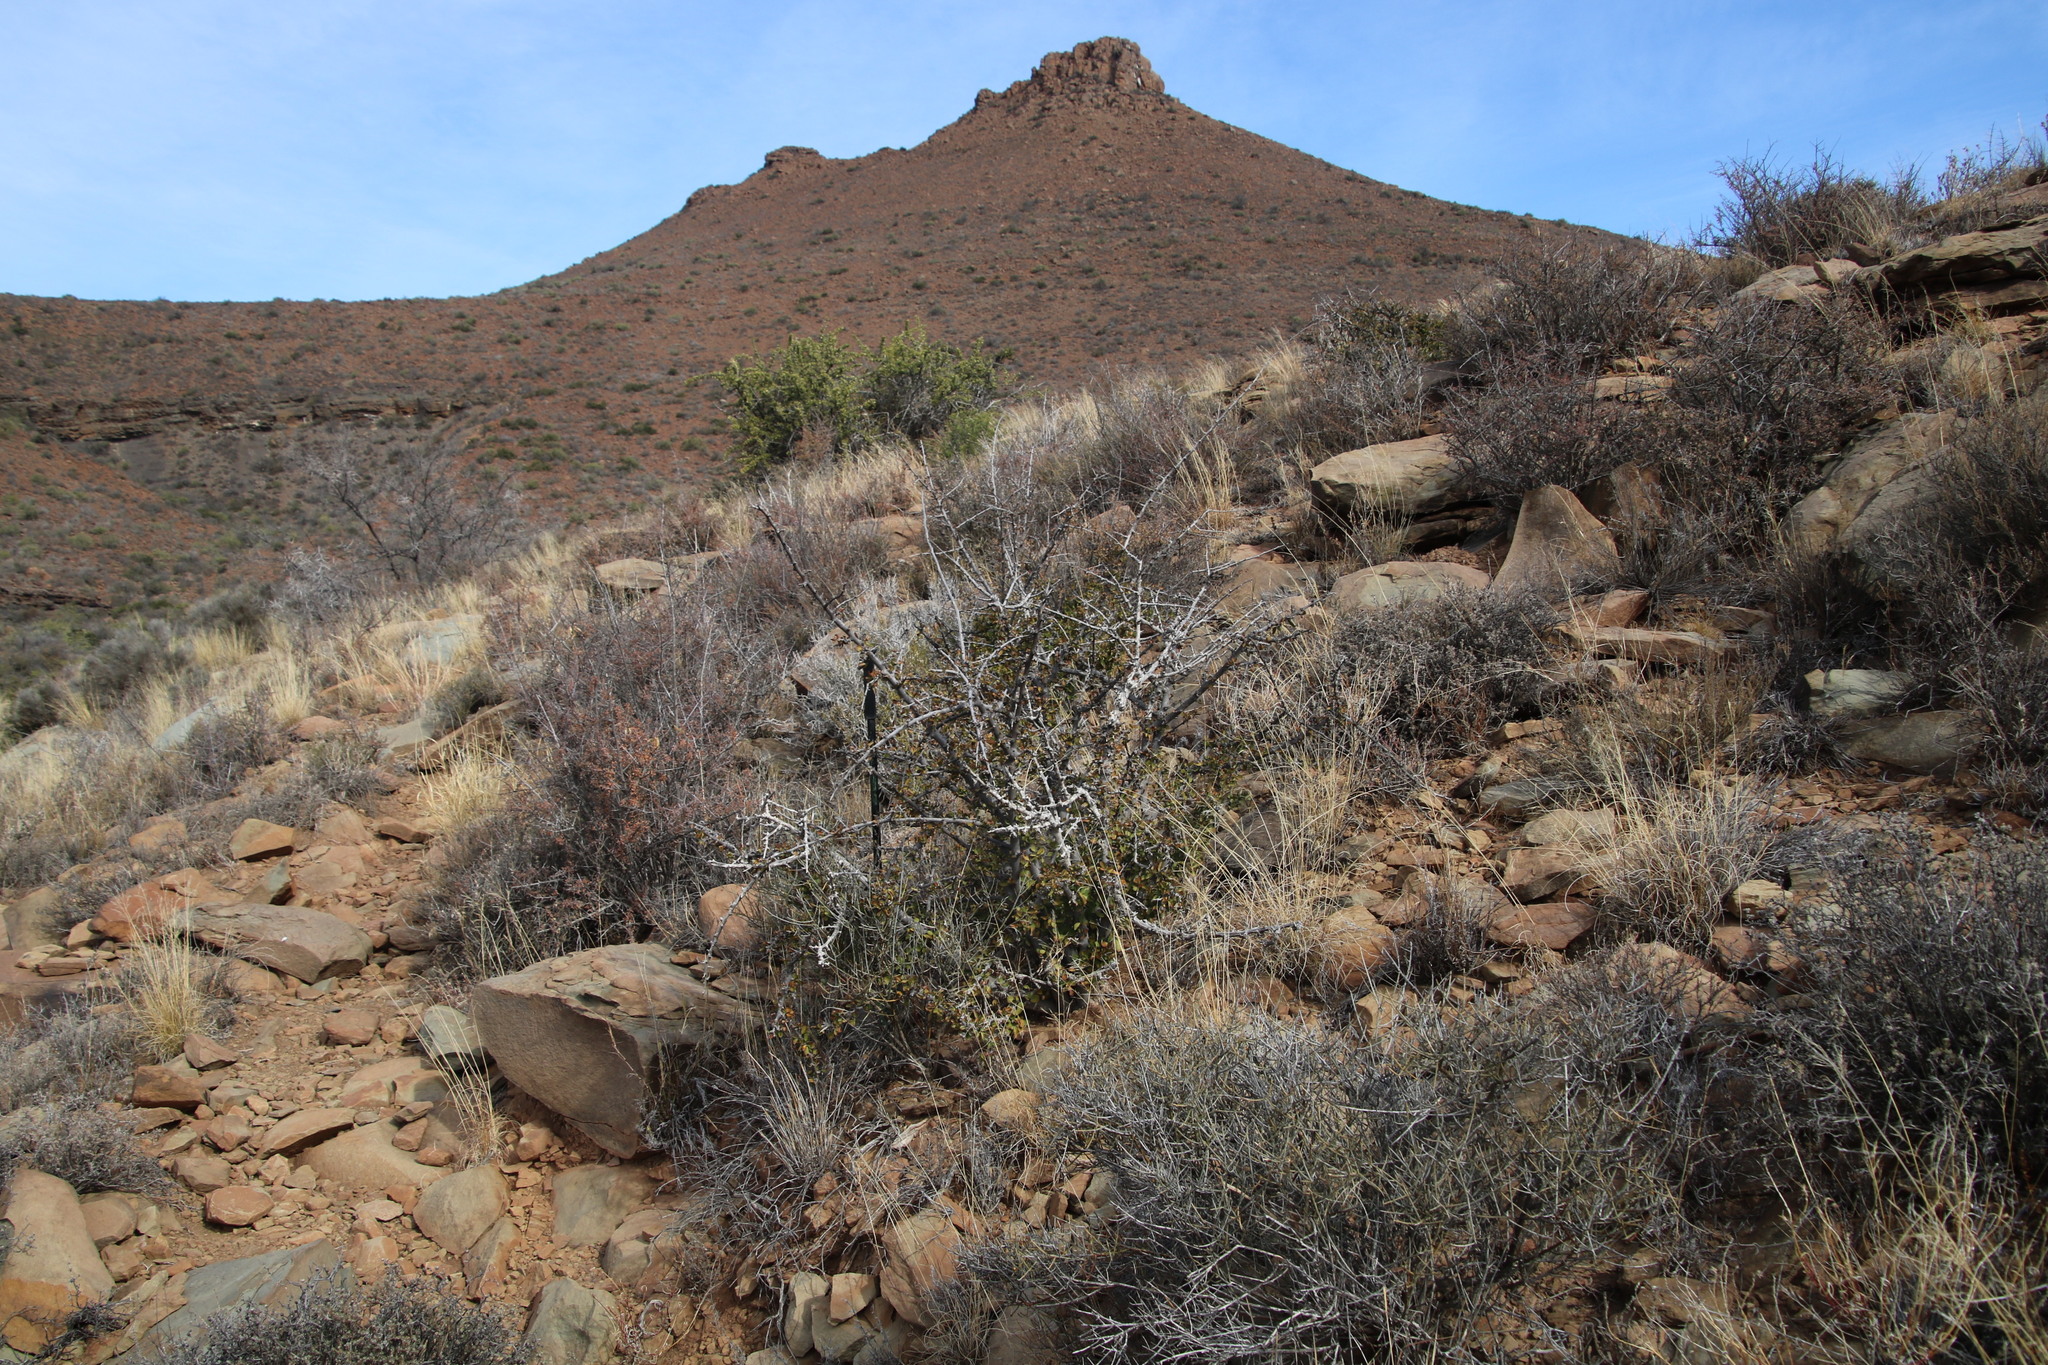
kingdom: Plantae
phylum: Tracheophyta
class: Magnoliopsida
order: Boraginales
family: Ehretiaceae
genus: Ehretia
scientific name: Ehretia rigida
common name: Cape lilac
